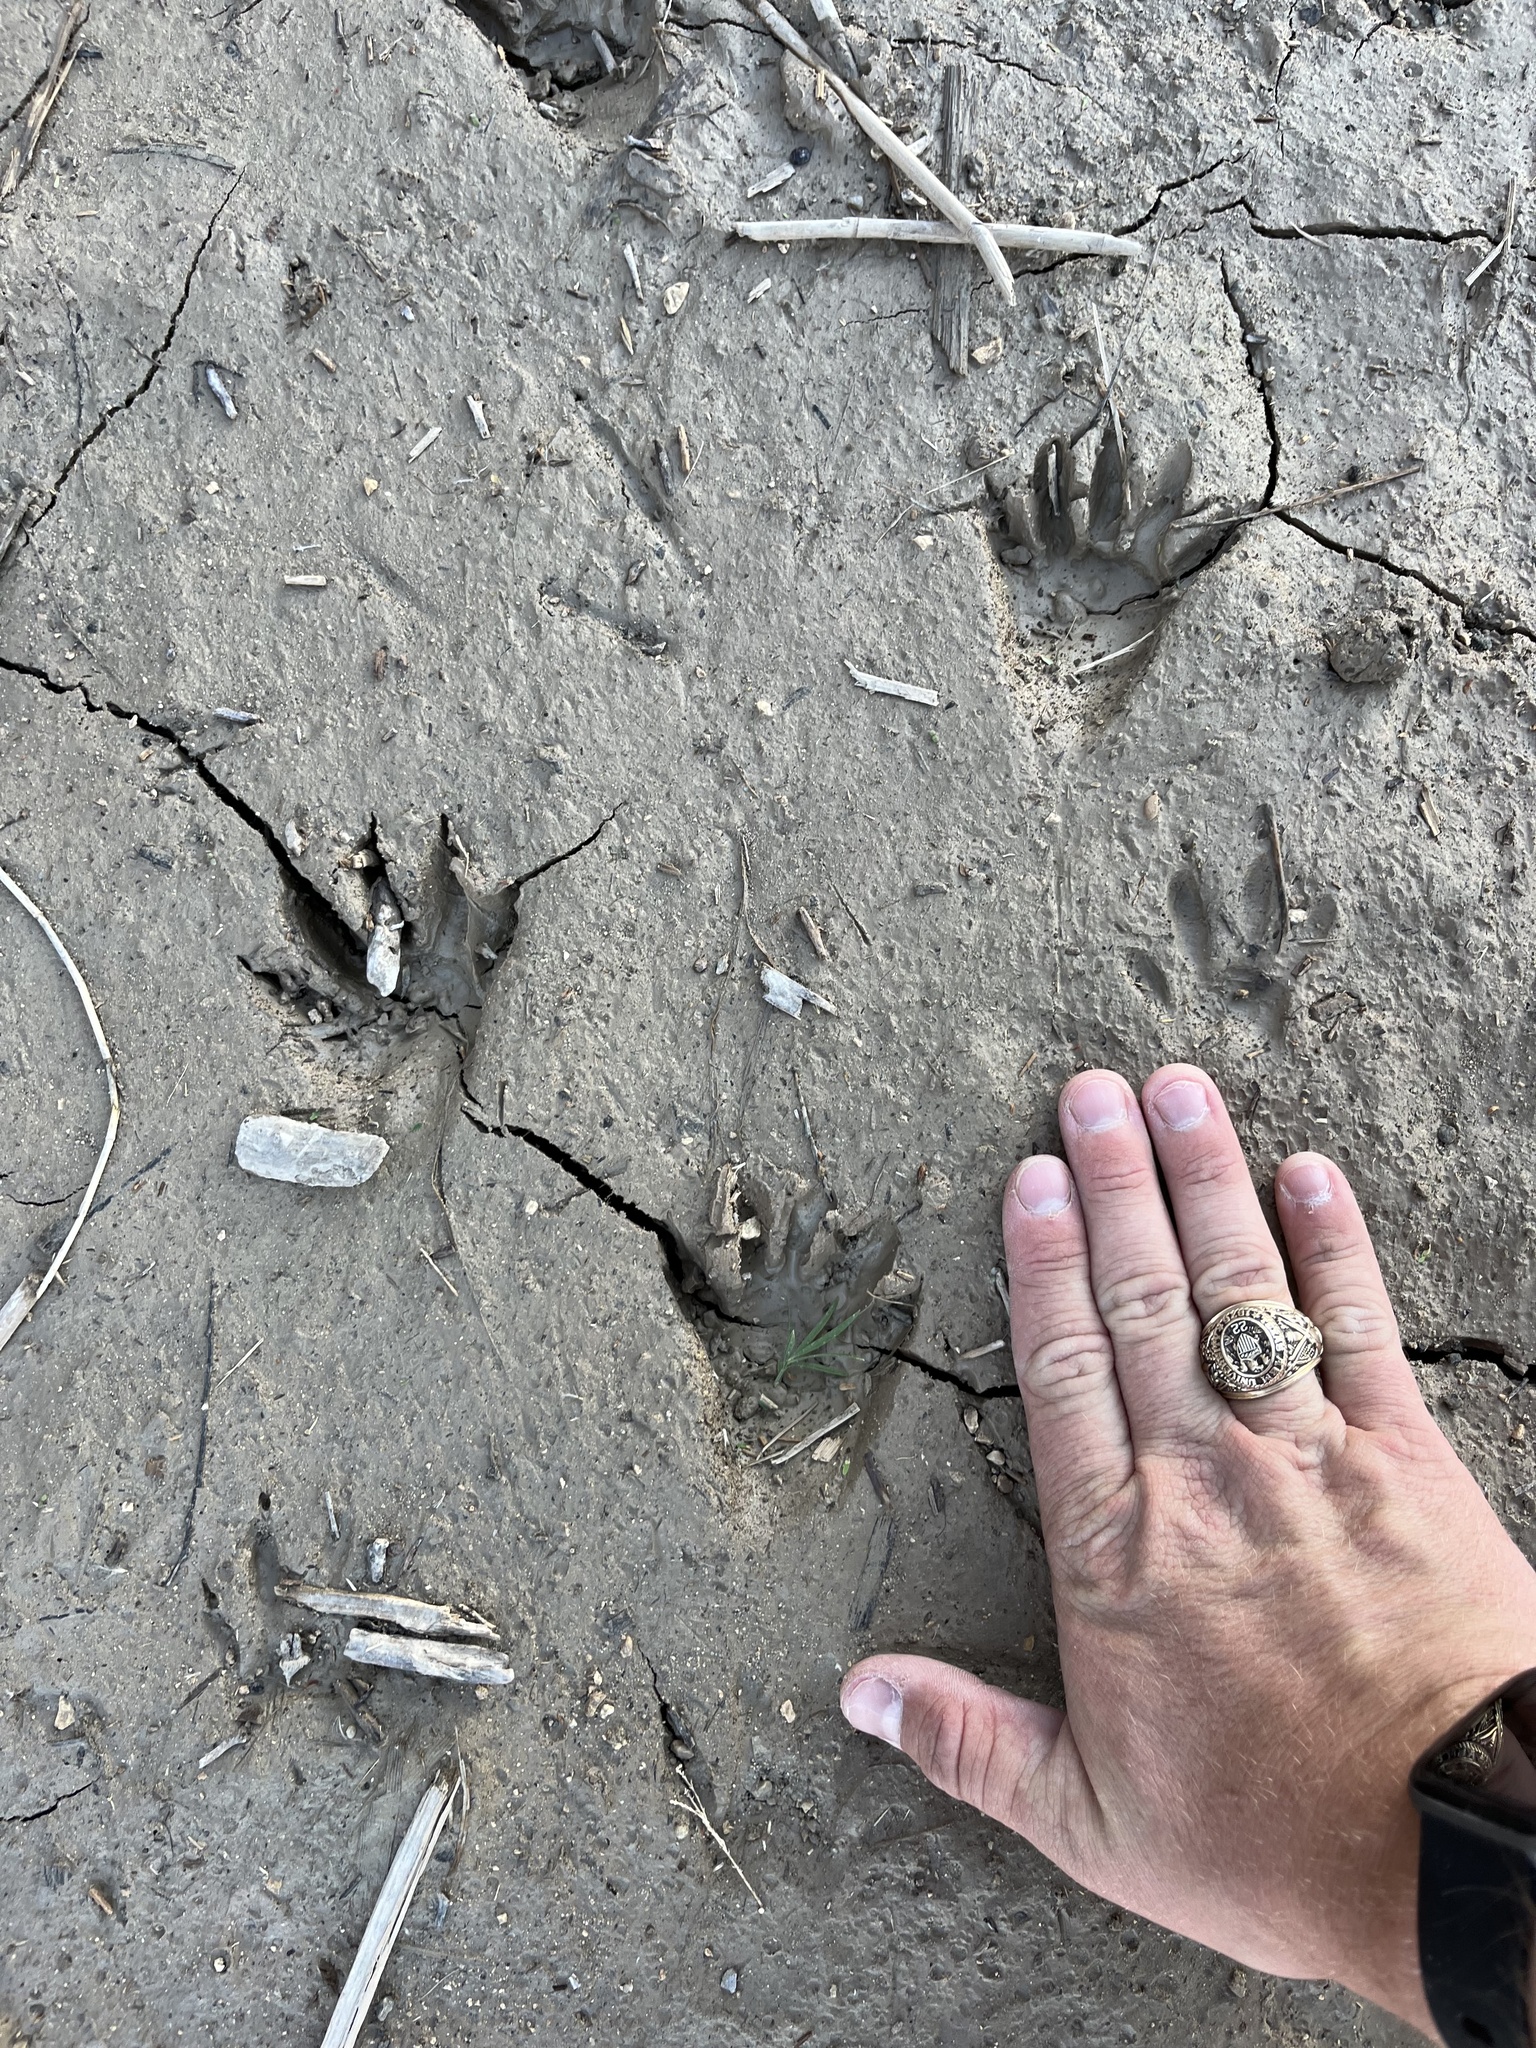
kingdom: Animalia
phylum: Chordata
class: Mammalia
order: Carnivora
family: Procyonidae
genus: Procyon
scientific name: Procyon lotor
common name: Raccoon
